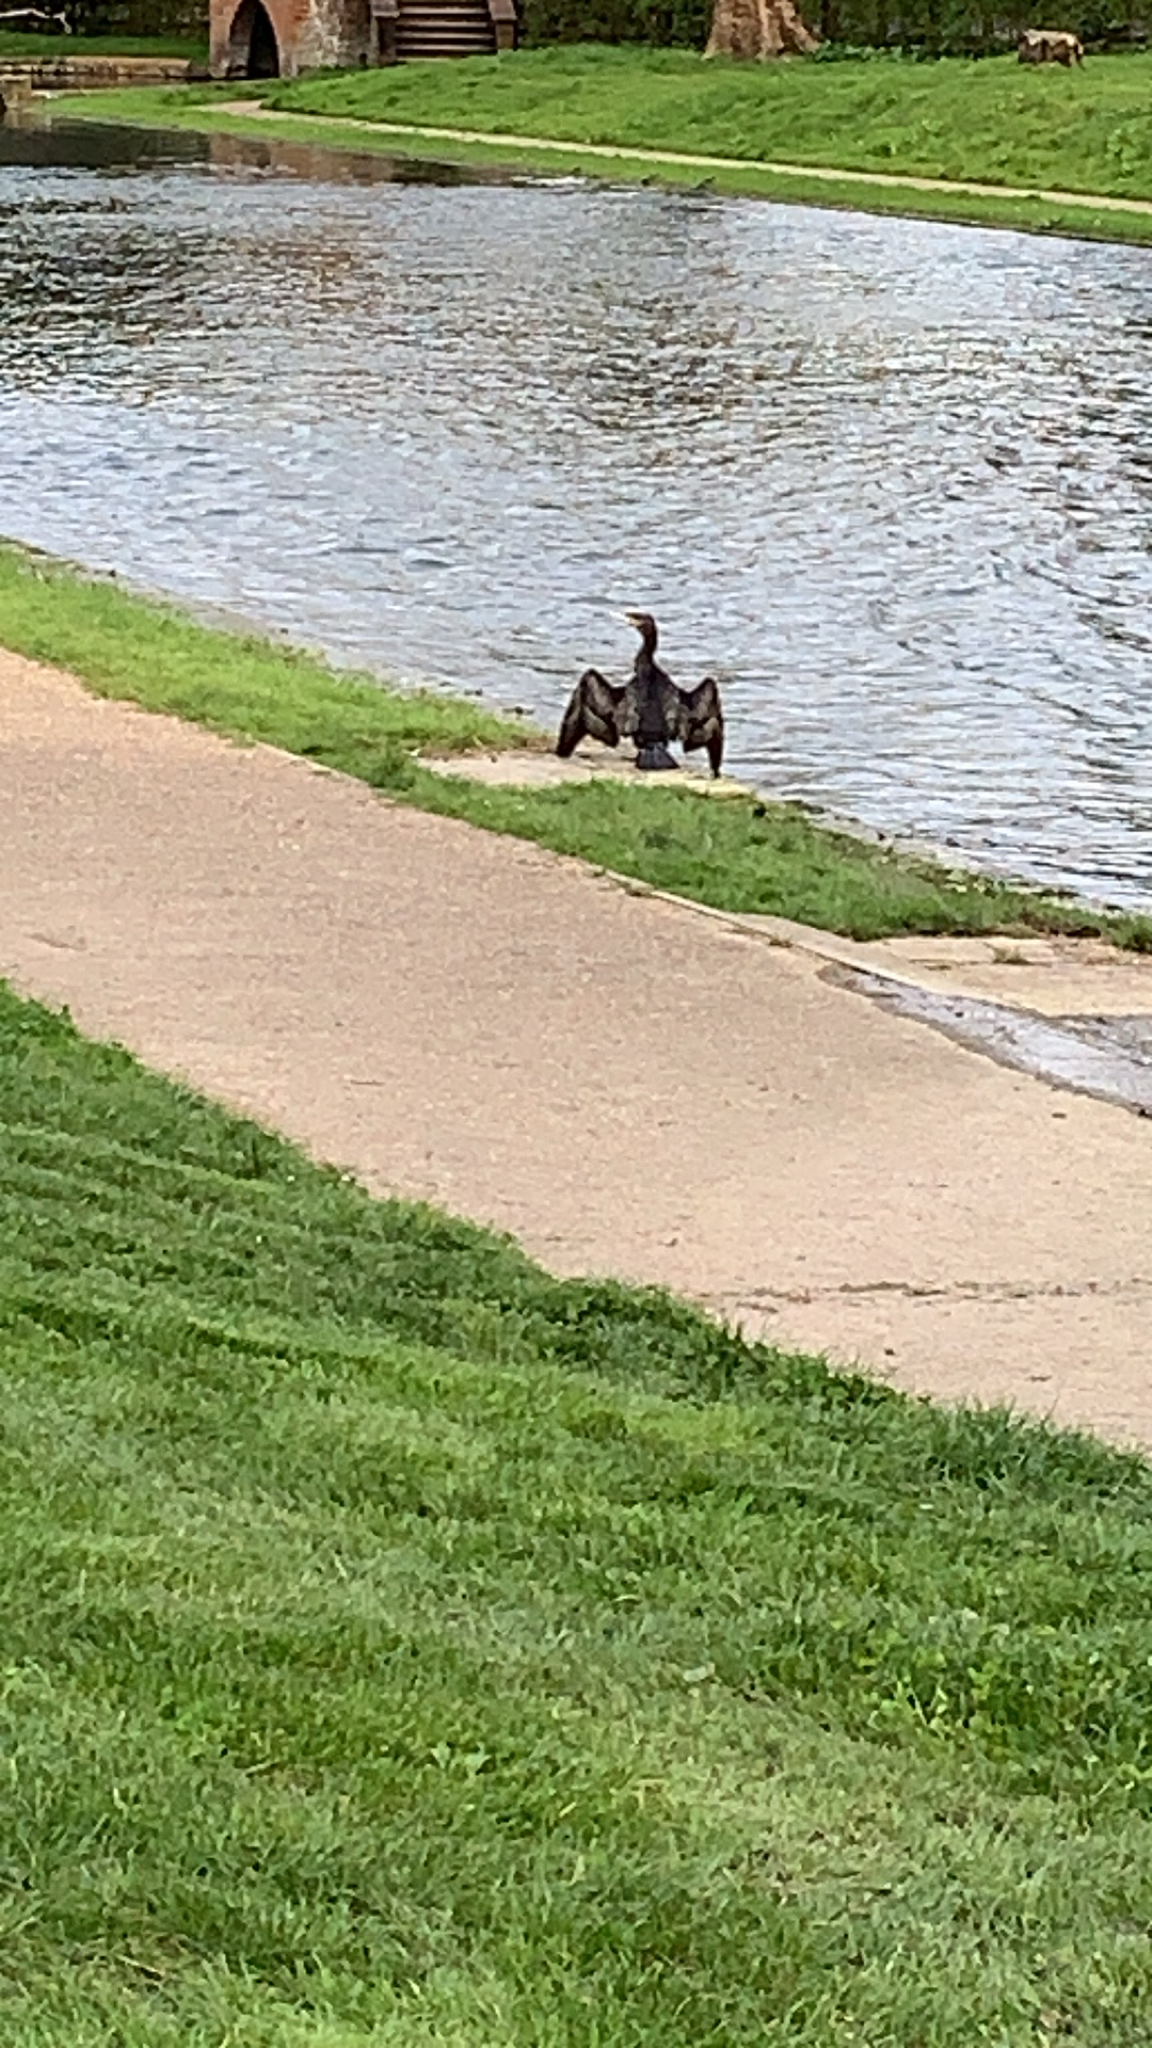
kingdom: Animalia
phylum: Chordata
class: Aves
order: Suliformes
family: Phalacrocoracidae
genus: Phalacrocorax
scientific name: Phalacrocorax carbo
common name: Great cormorant
